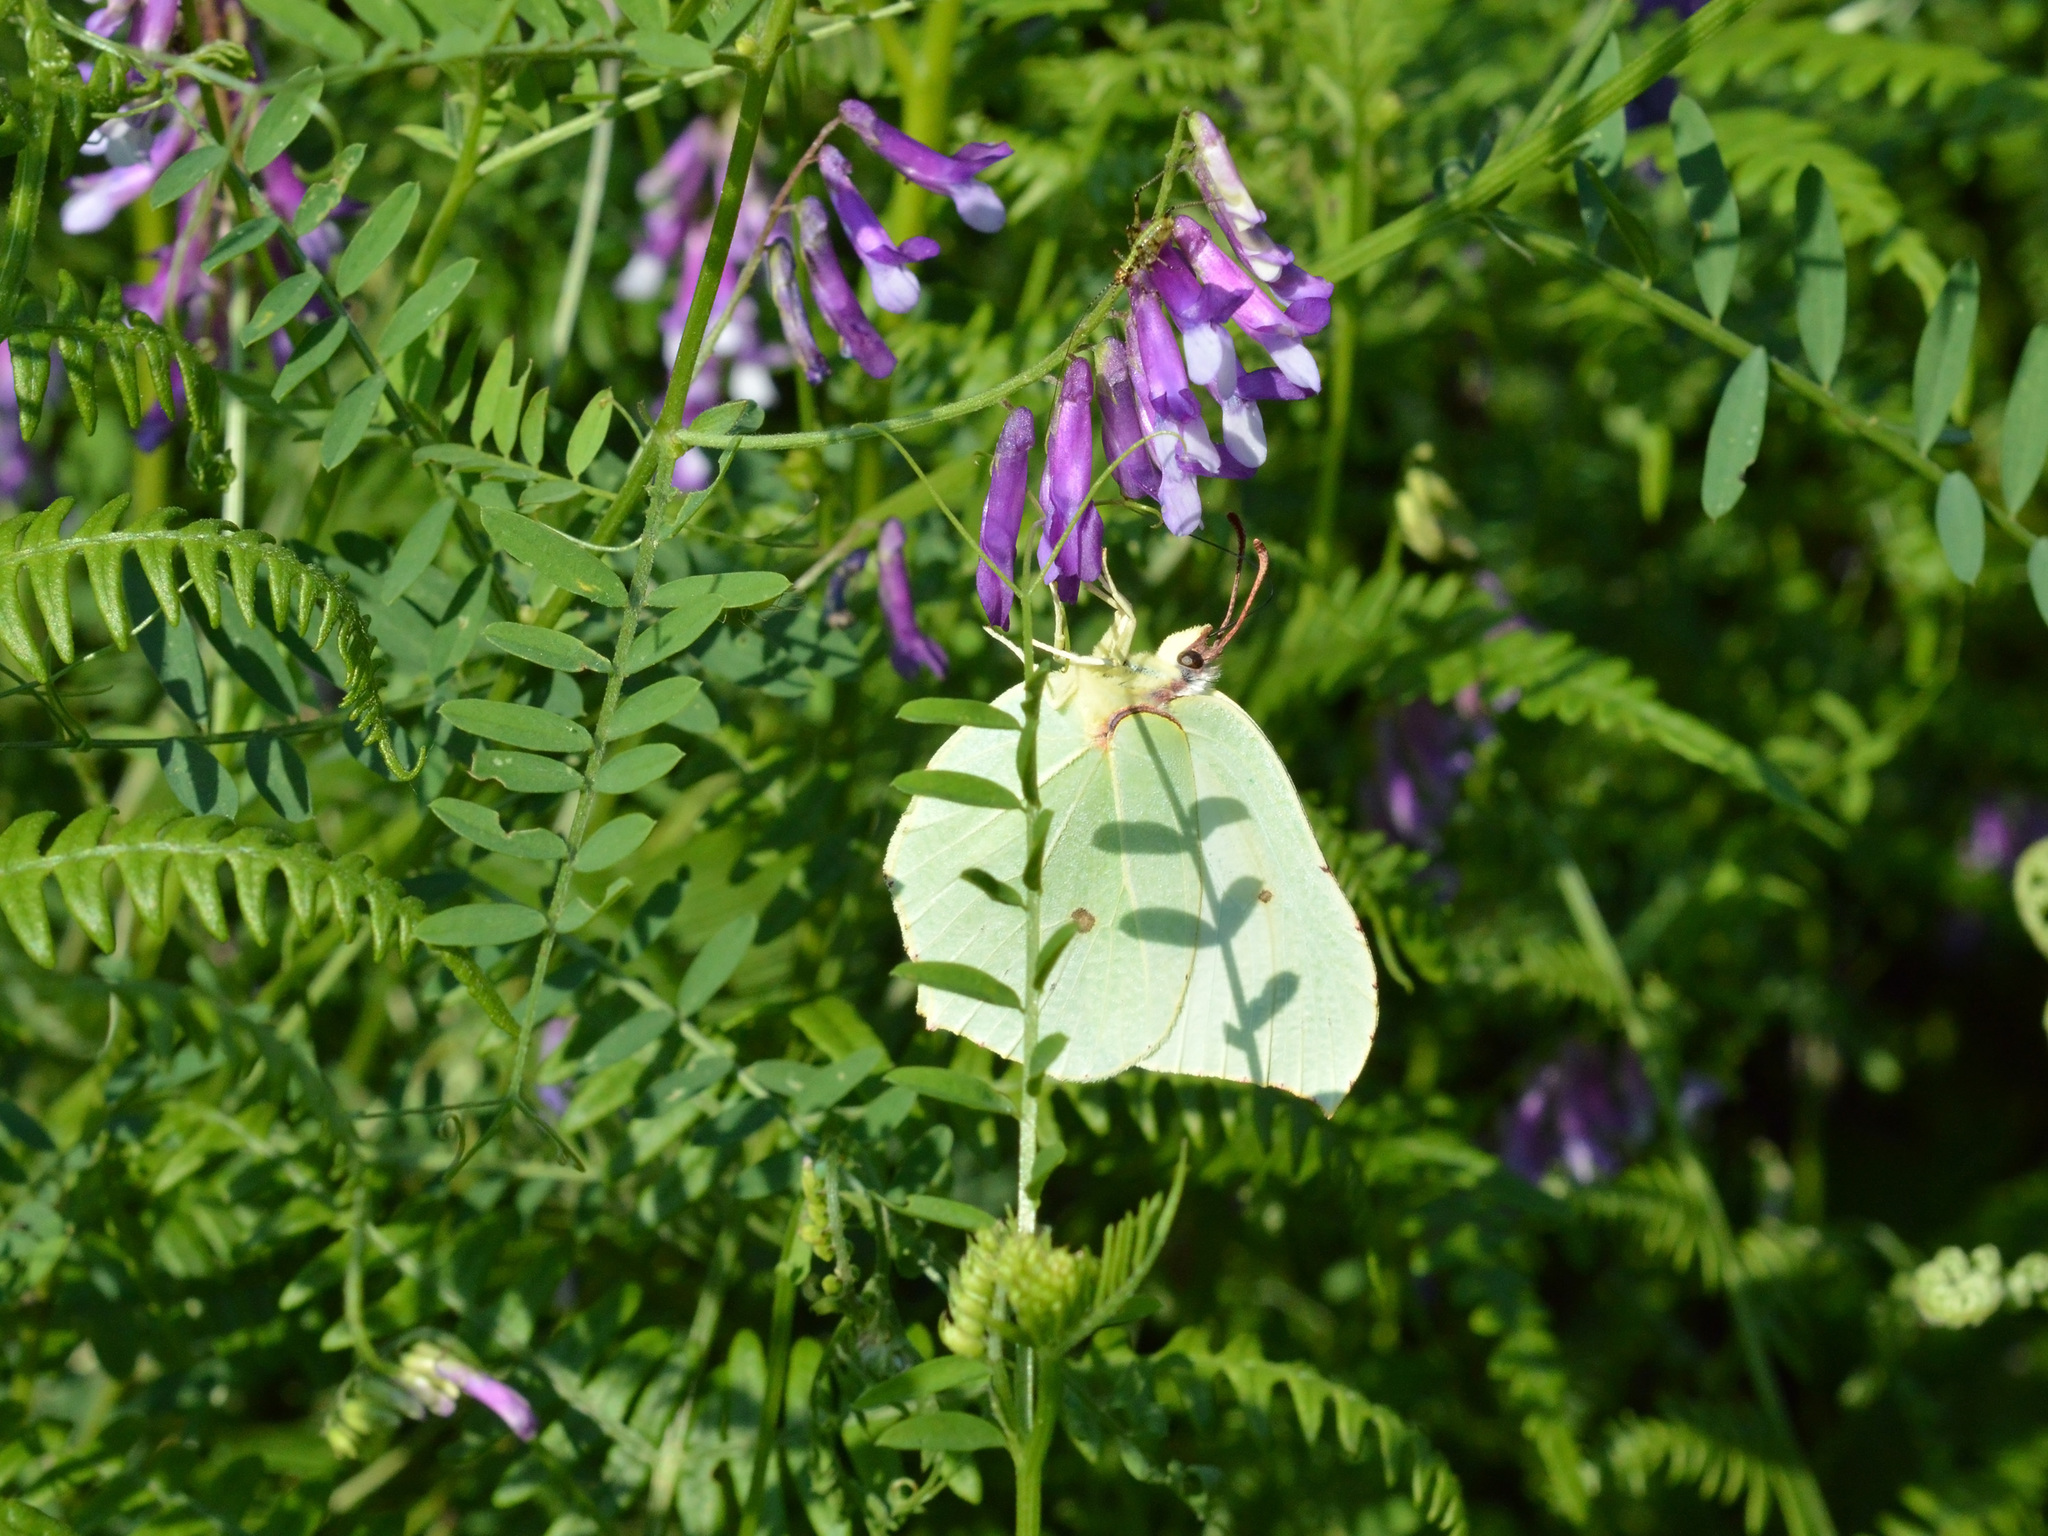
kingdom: Animalia
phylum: Arthropoda
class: Insecta
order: Lepidoptera
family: Pieridae
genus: Gonepteryx
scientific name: Gonepteryx rhamni
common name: Brimstone
